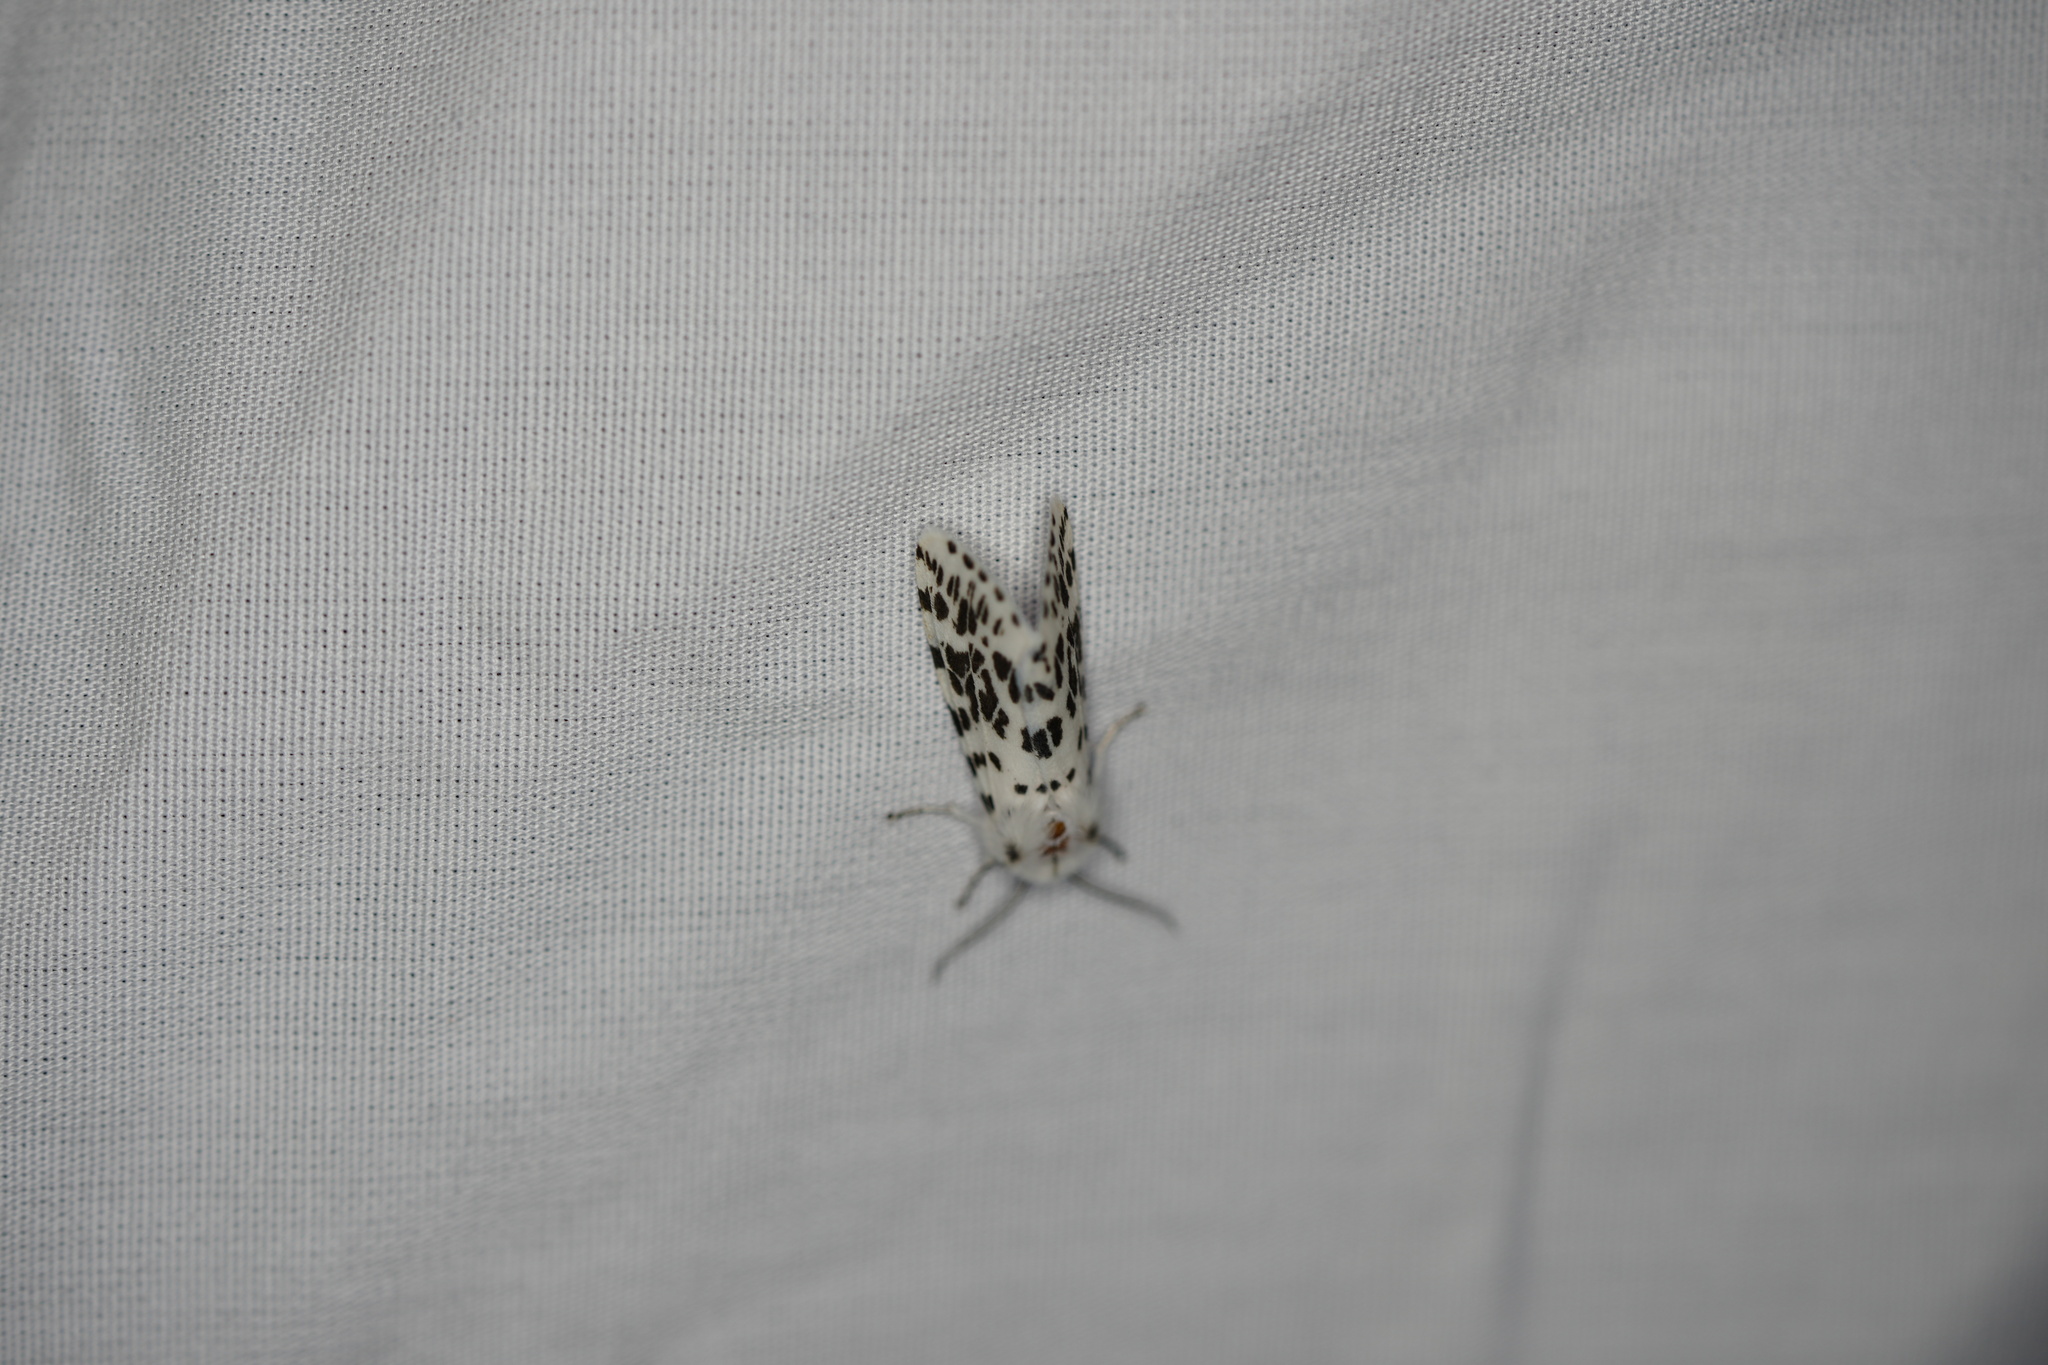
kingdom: Animalia
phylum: Arthropoda
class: Insecta
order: Lepidoptera
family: Erebidae
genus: Hyphantria
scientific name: Hyphantria cunea
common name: American white moth
